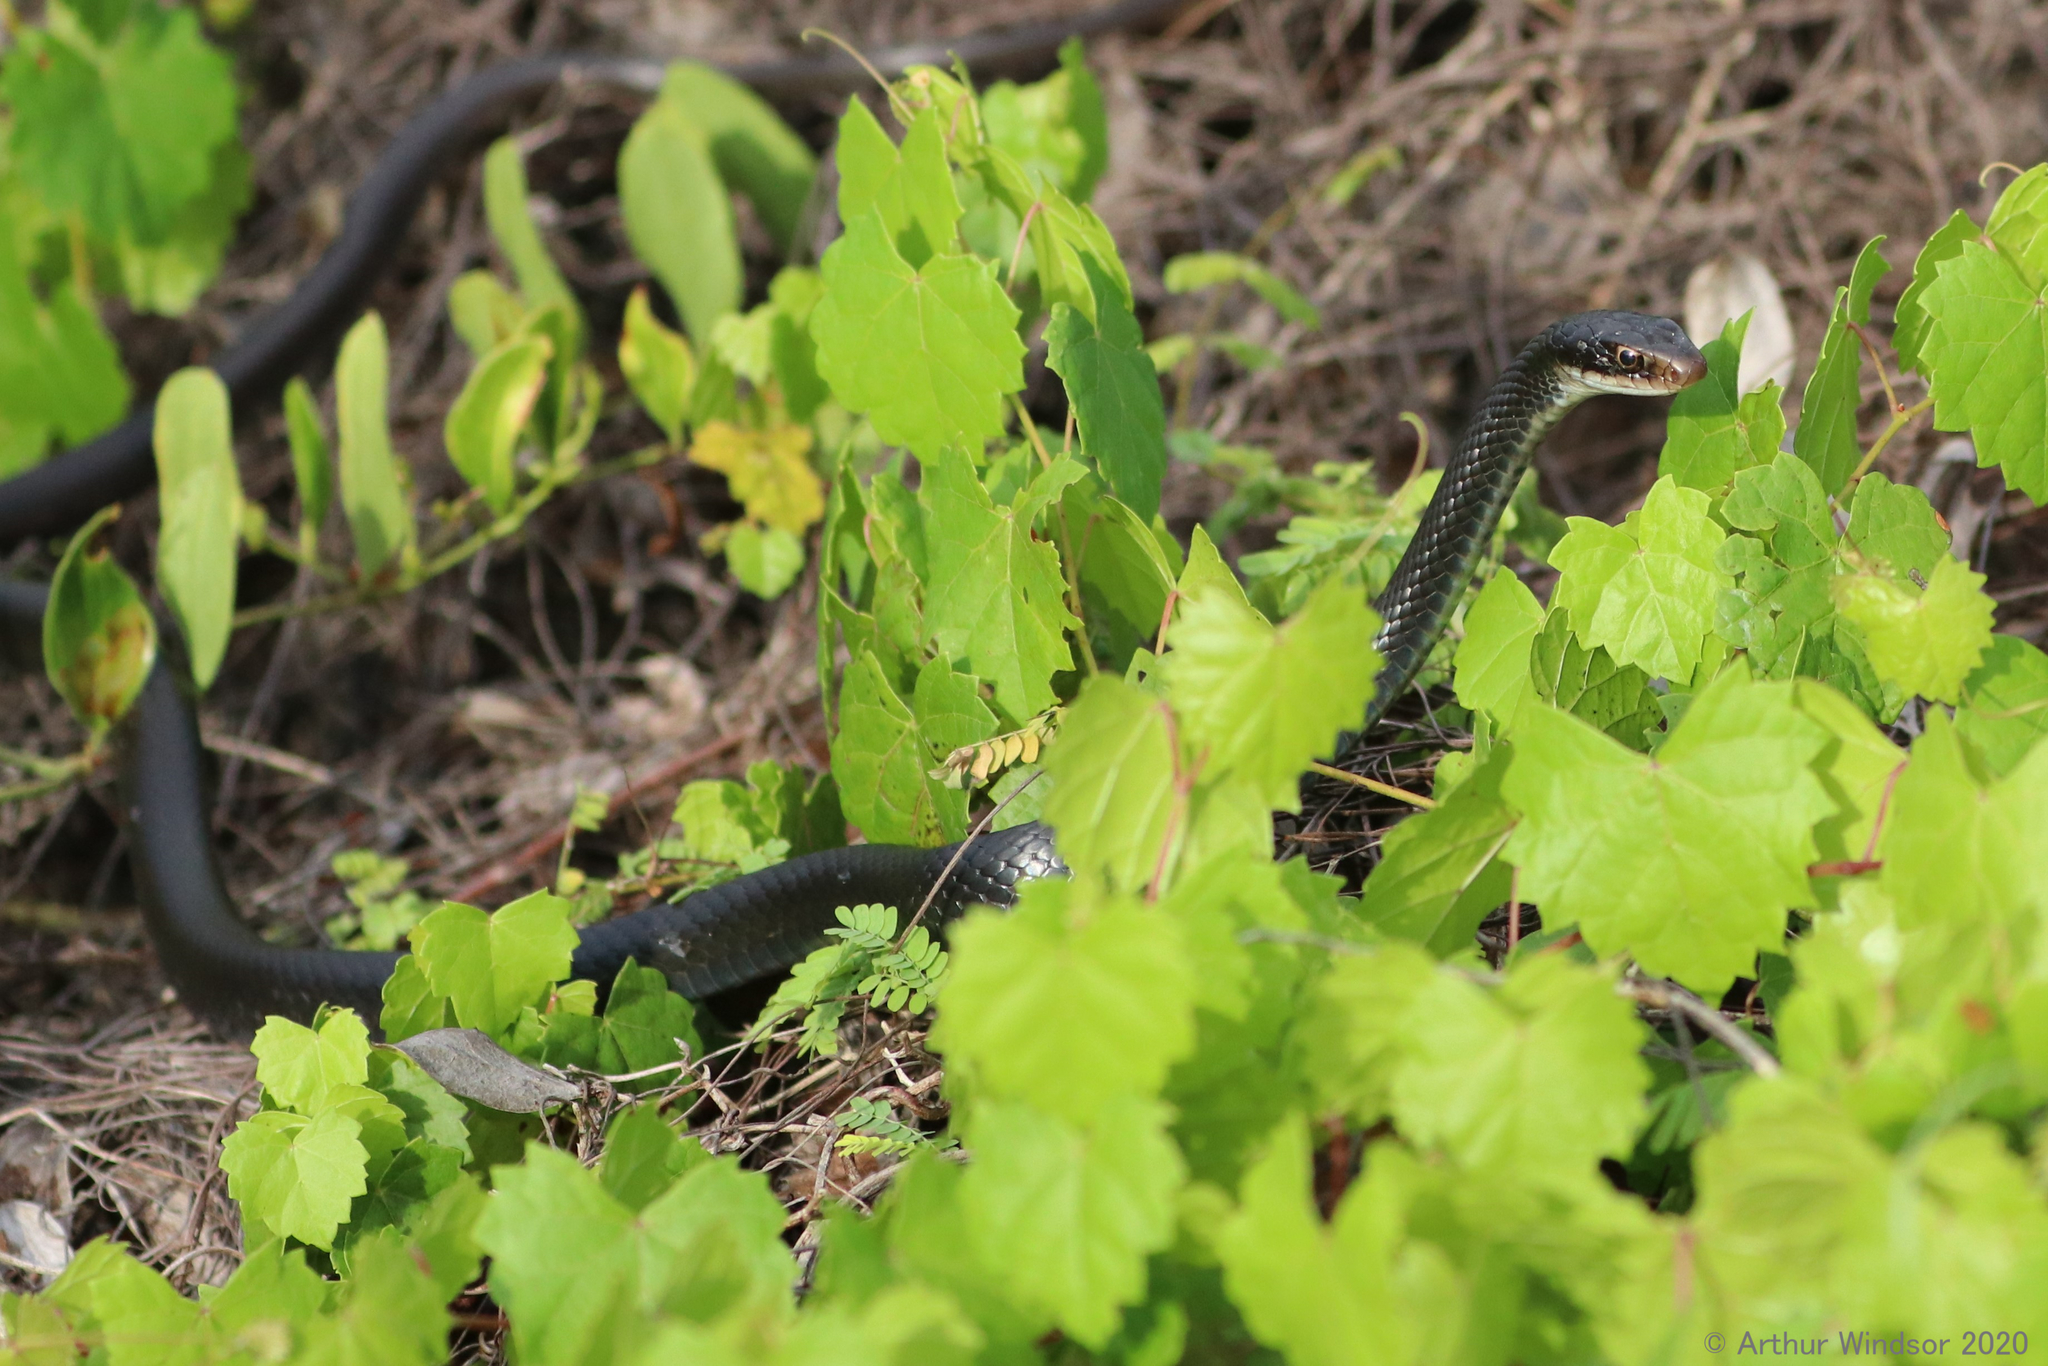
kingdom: Animalia
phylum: Chordata
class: Squamata
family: Colubridae
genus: Coluber
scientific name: Coluber constrictor
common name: Eastern racer
